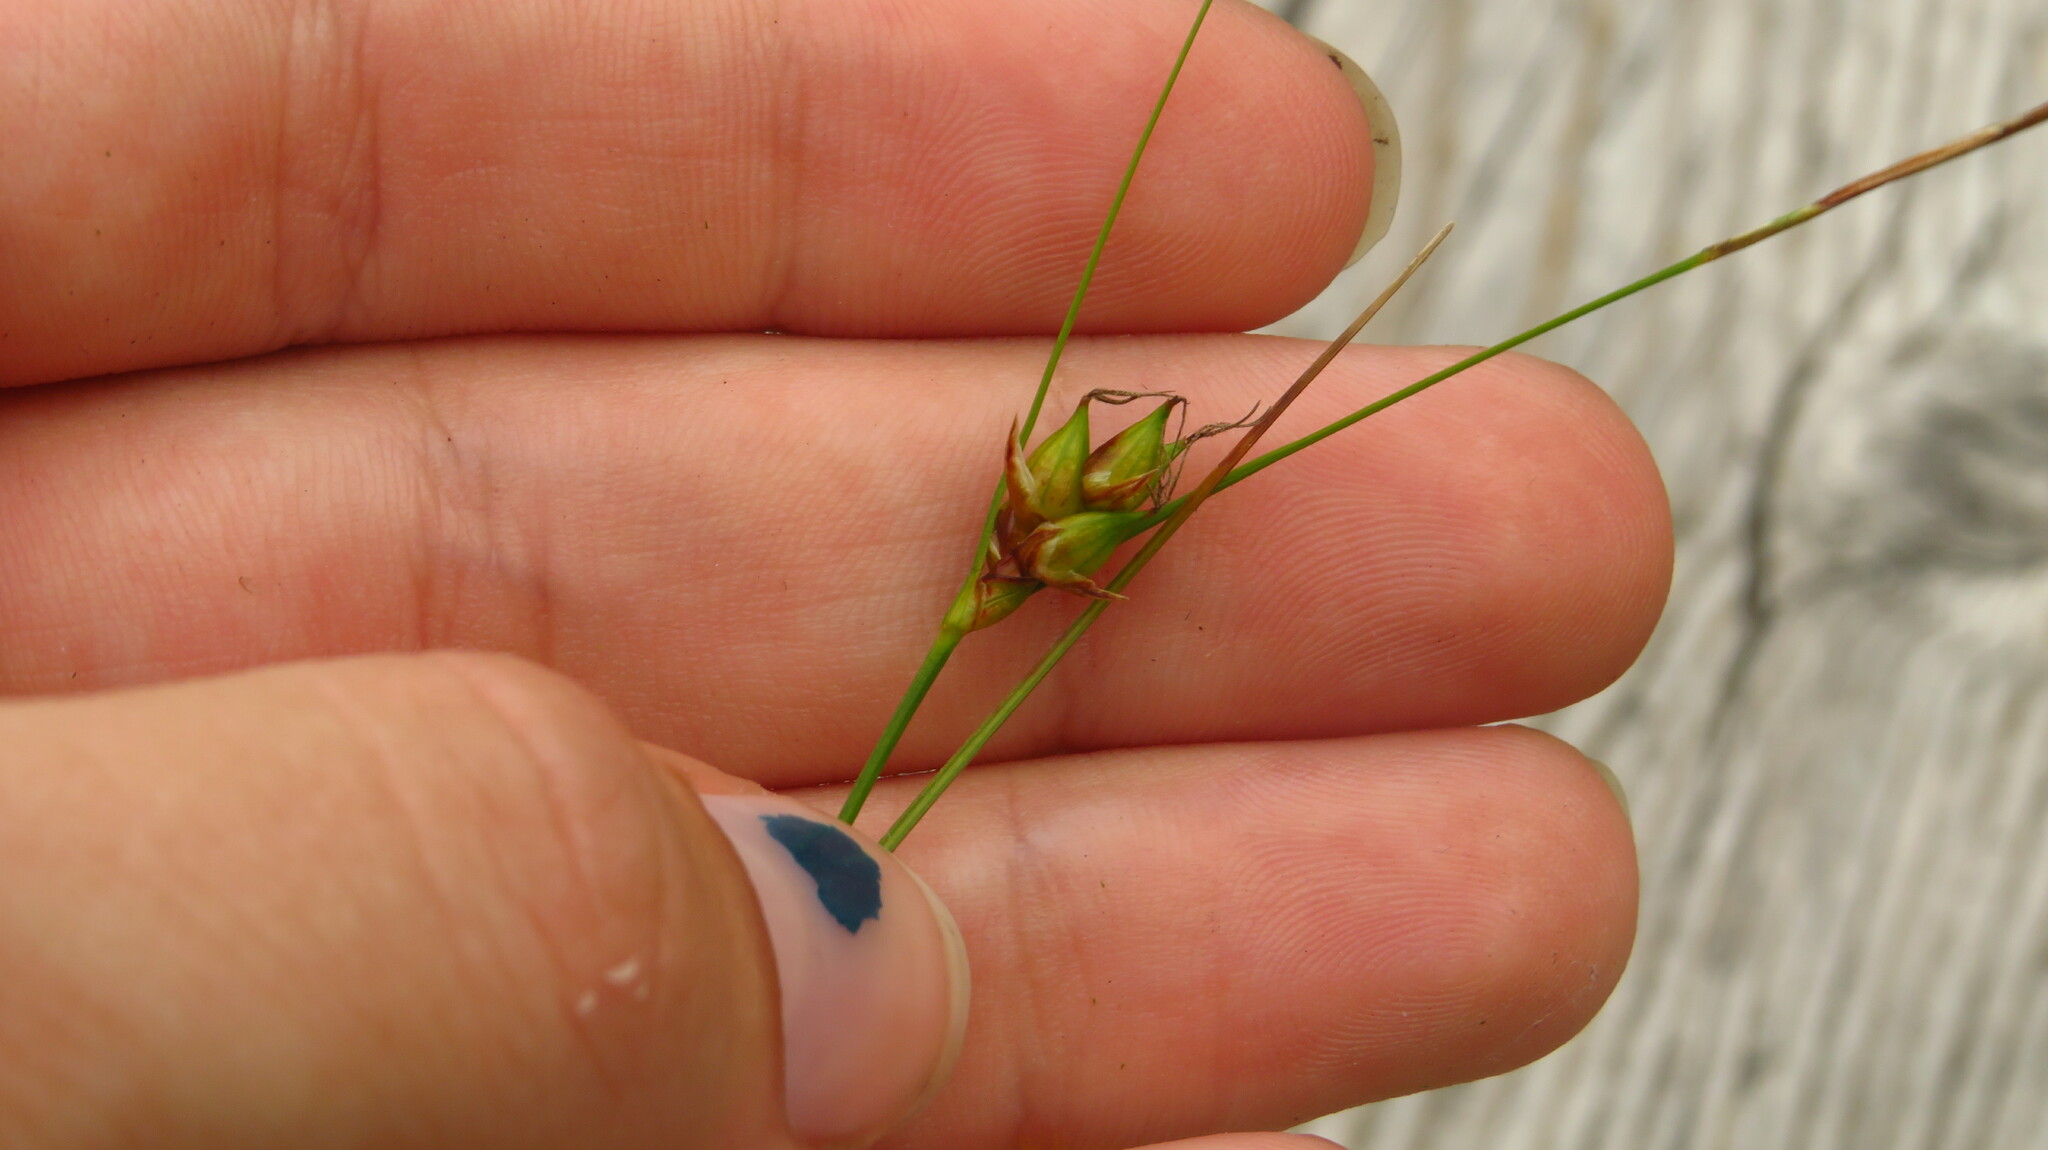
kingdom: Plantae
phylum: Tracheophyta
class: Liliopsida
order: Poales
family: Cyperaceae
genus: Carex
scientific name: Carex oligosperma
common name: Few-seed sedge
